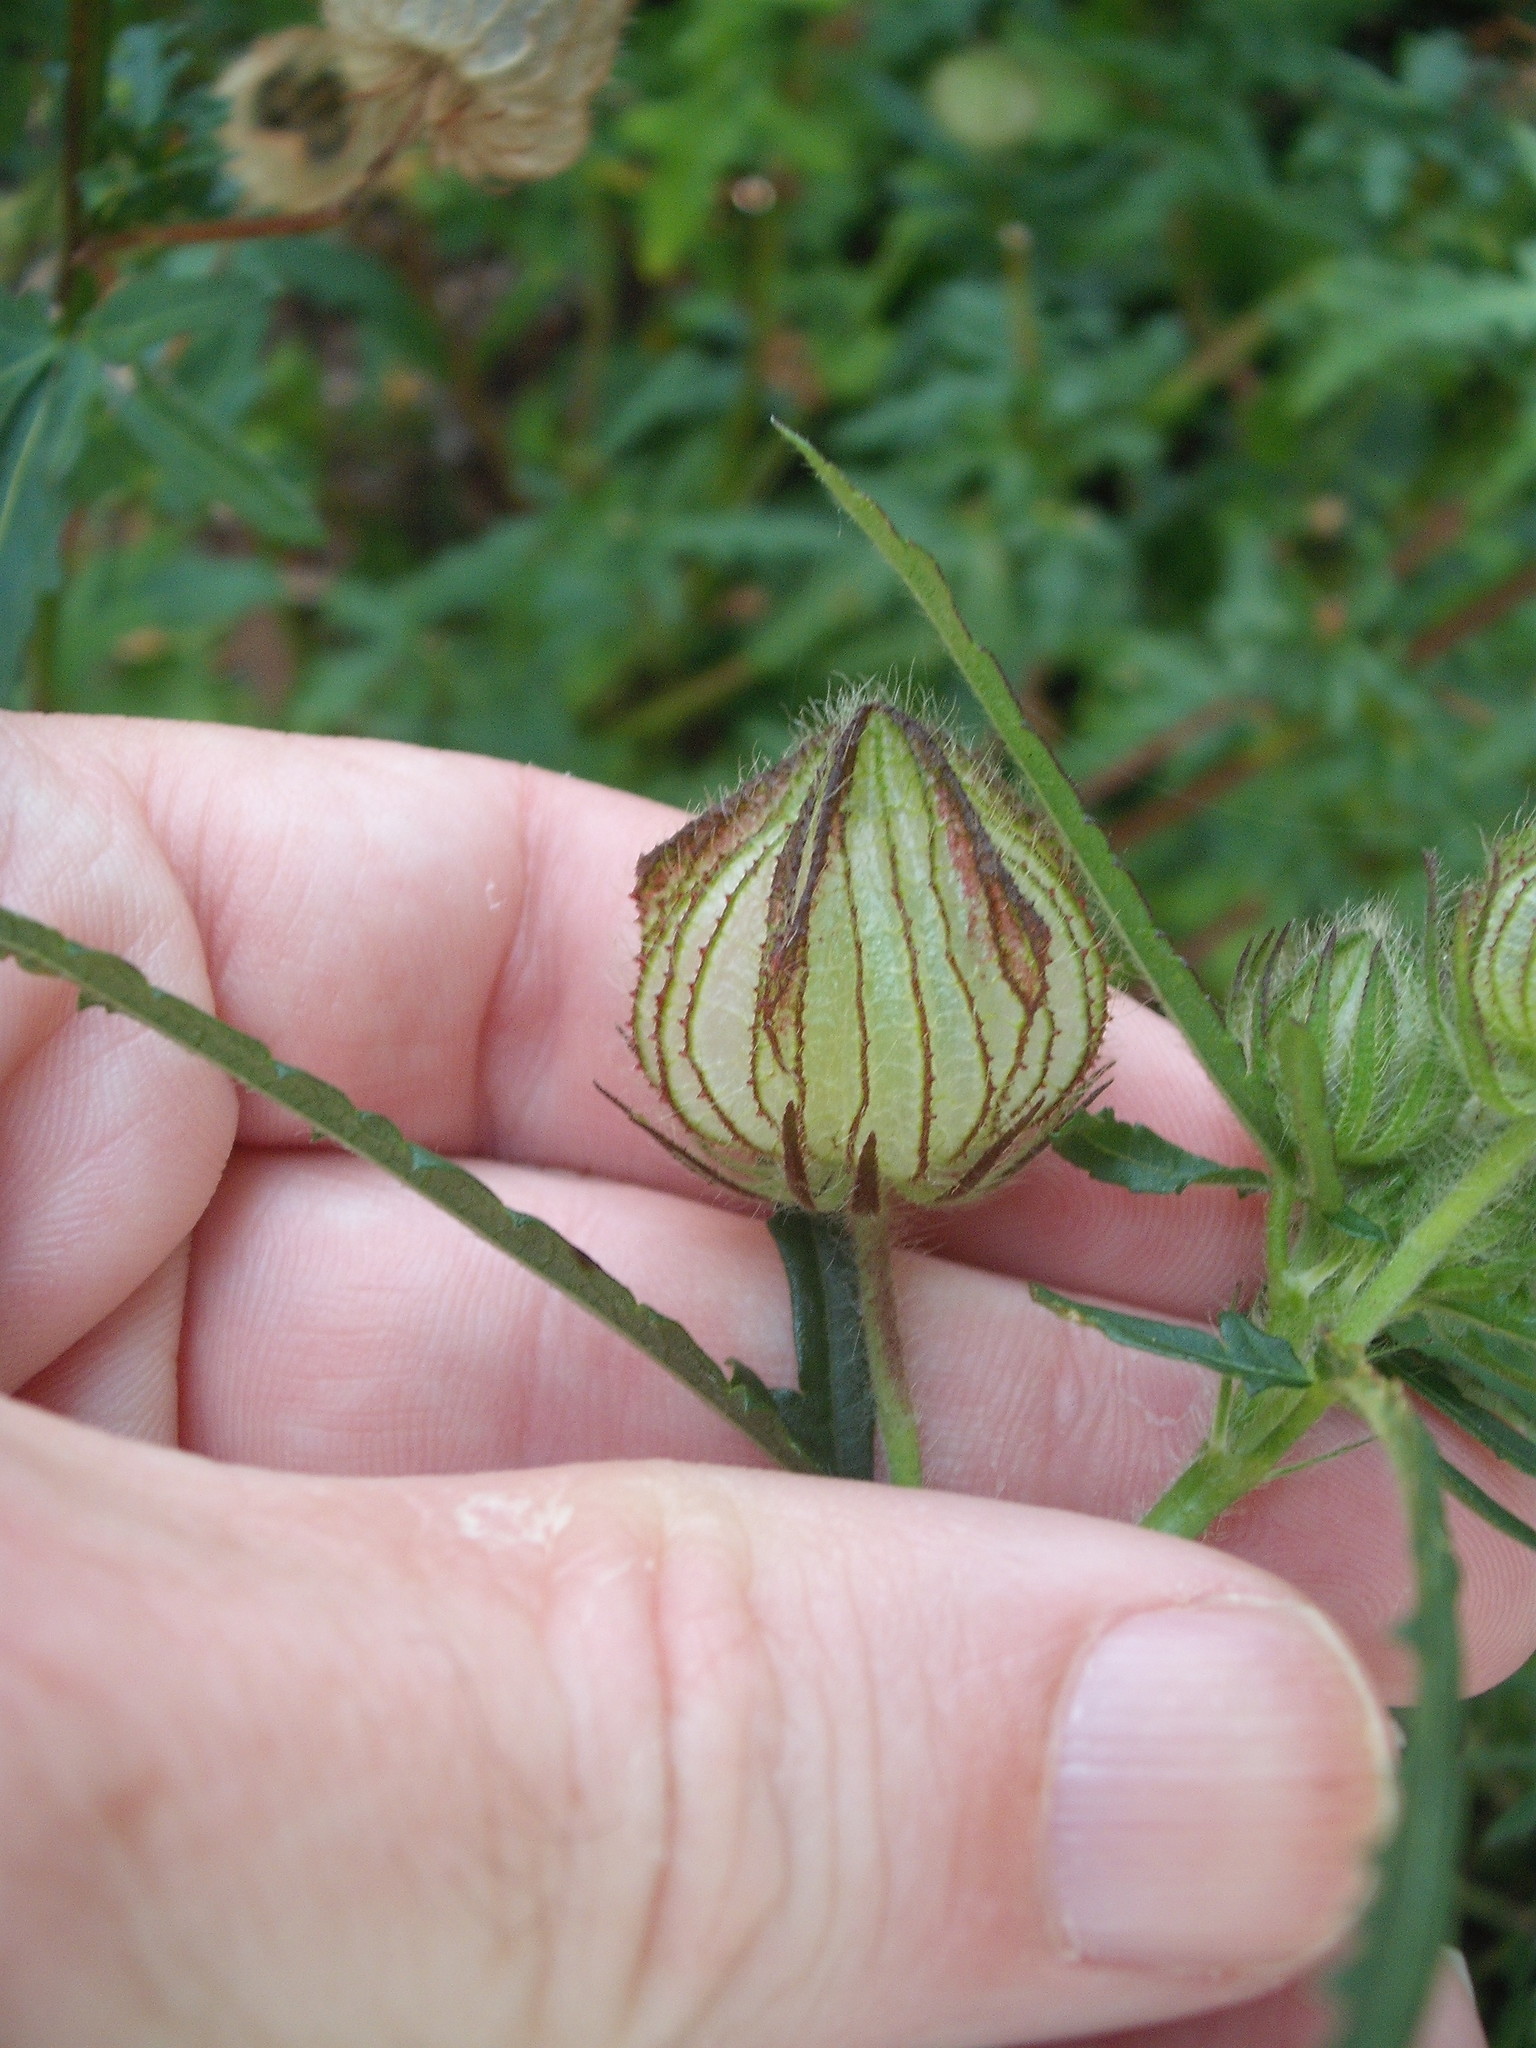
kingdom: Plantae
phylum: Tracheophyta
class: Magnoliopsida
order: Malvales
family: Malvaceae
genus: Hibiscus
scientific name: Hibiscus trionum
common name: Bladder ketmia
